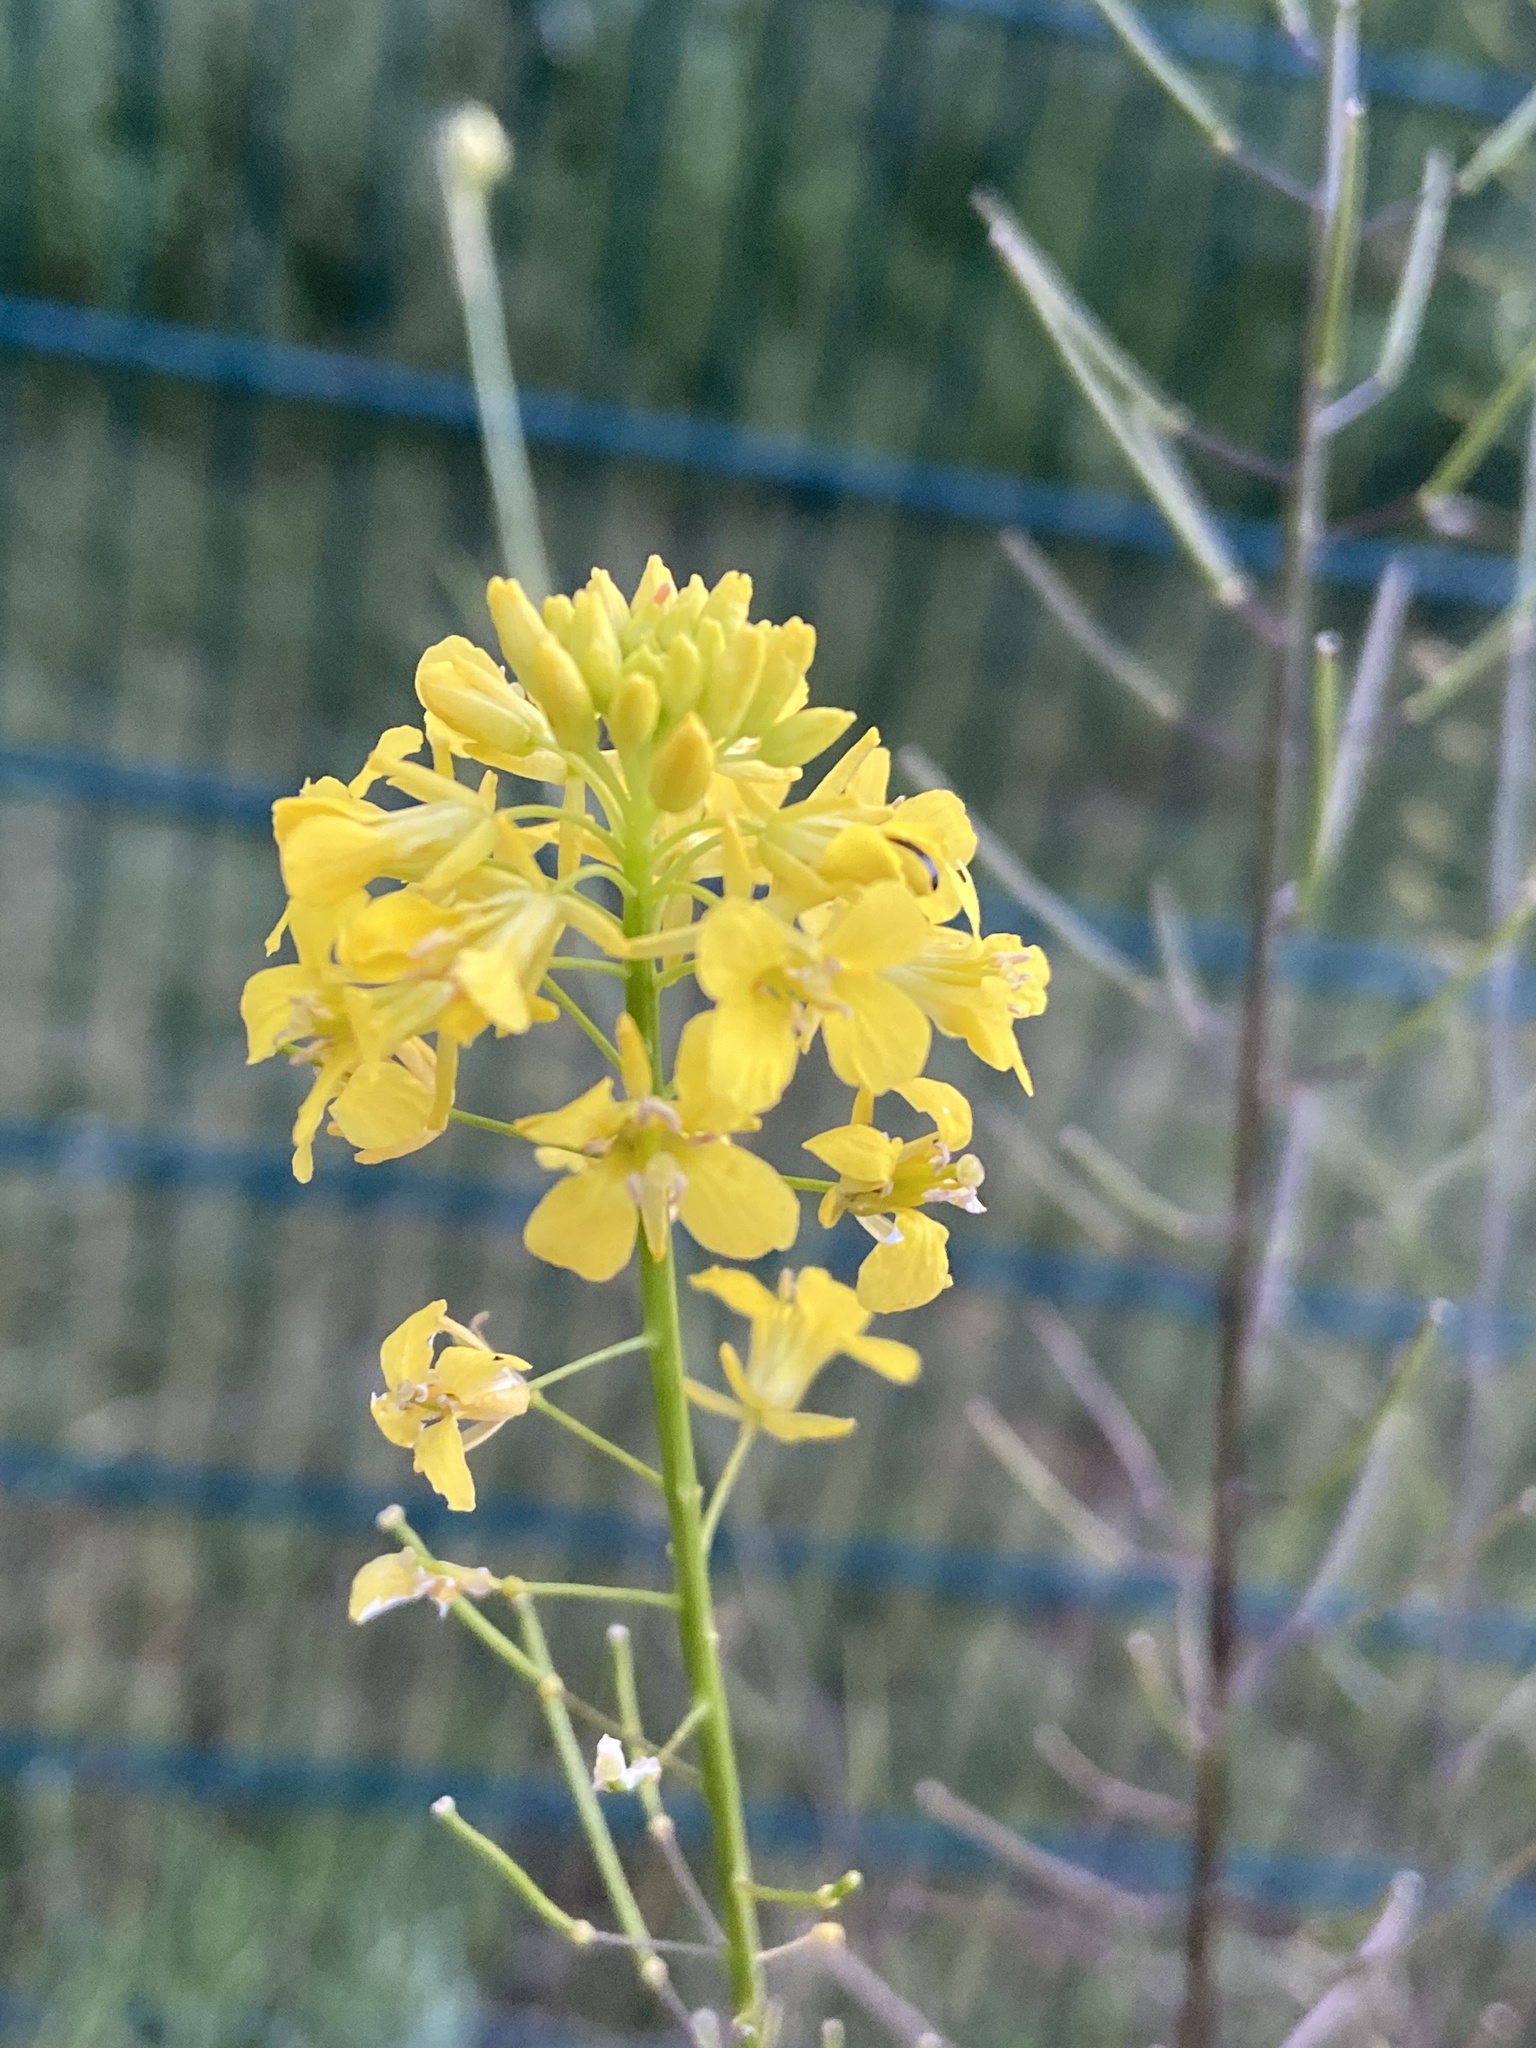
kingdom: Plantae
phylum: Tracheophyta
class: Magnoliopsida
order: Brassicales
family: Brassicaceae
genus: Sisymbrium
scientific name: Sisymbrium loeselii
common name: False london-rocket
